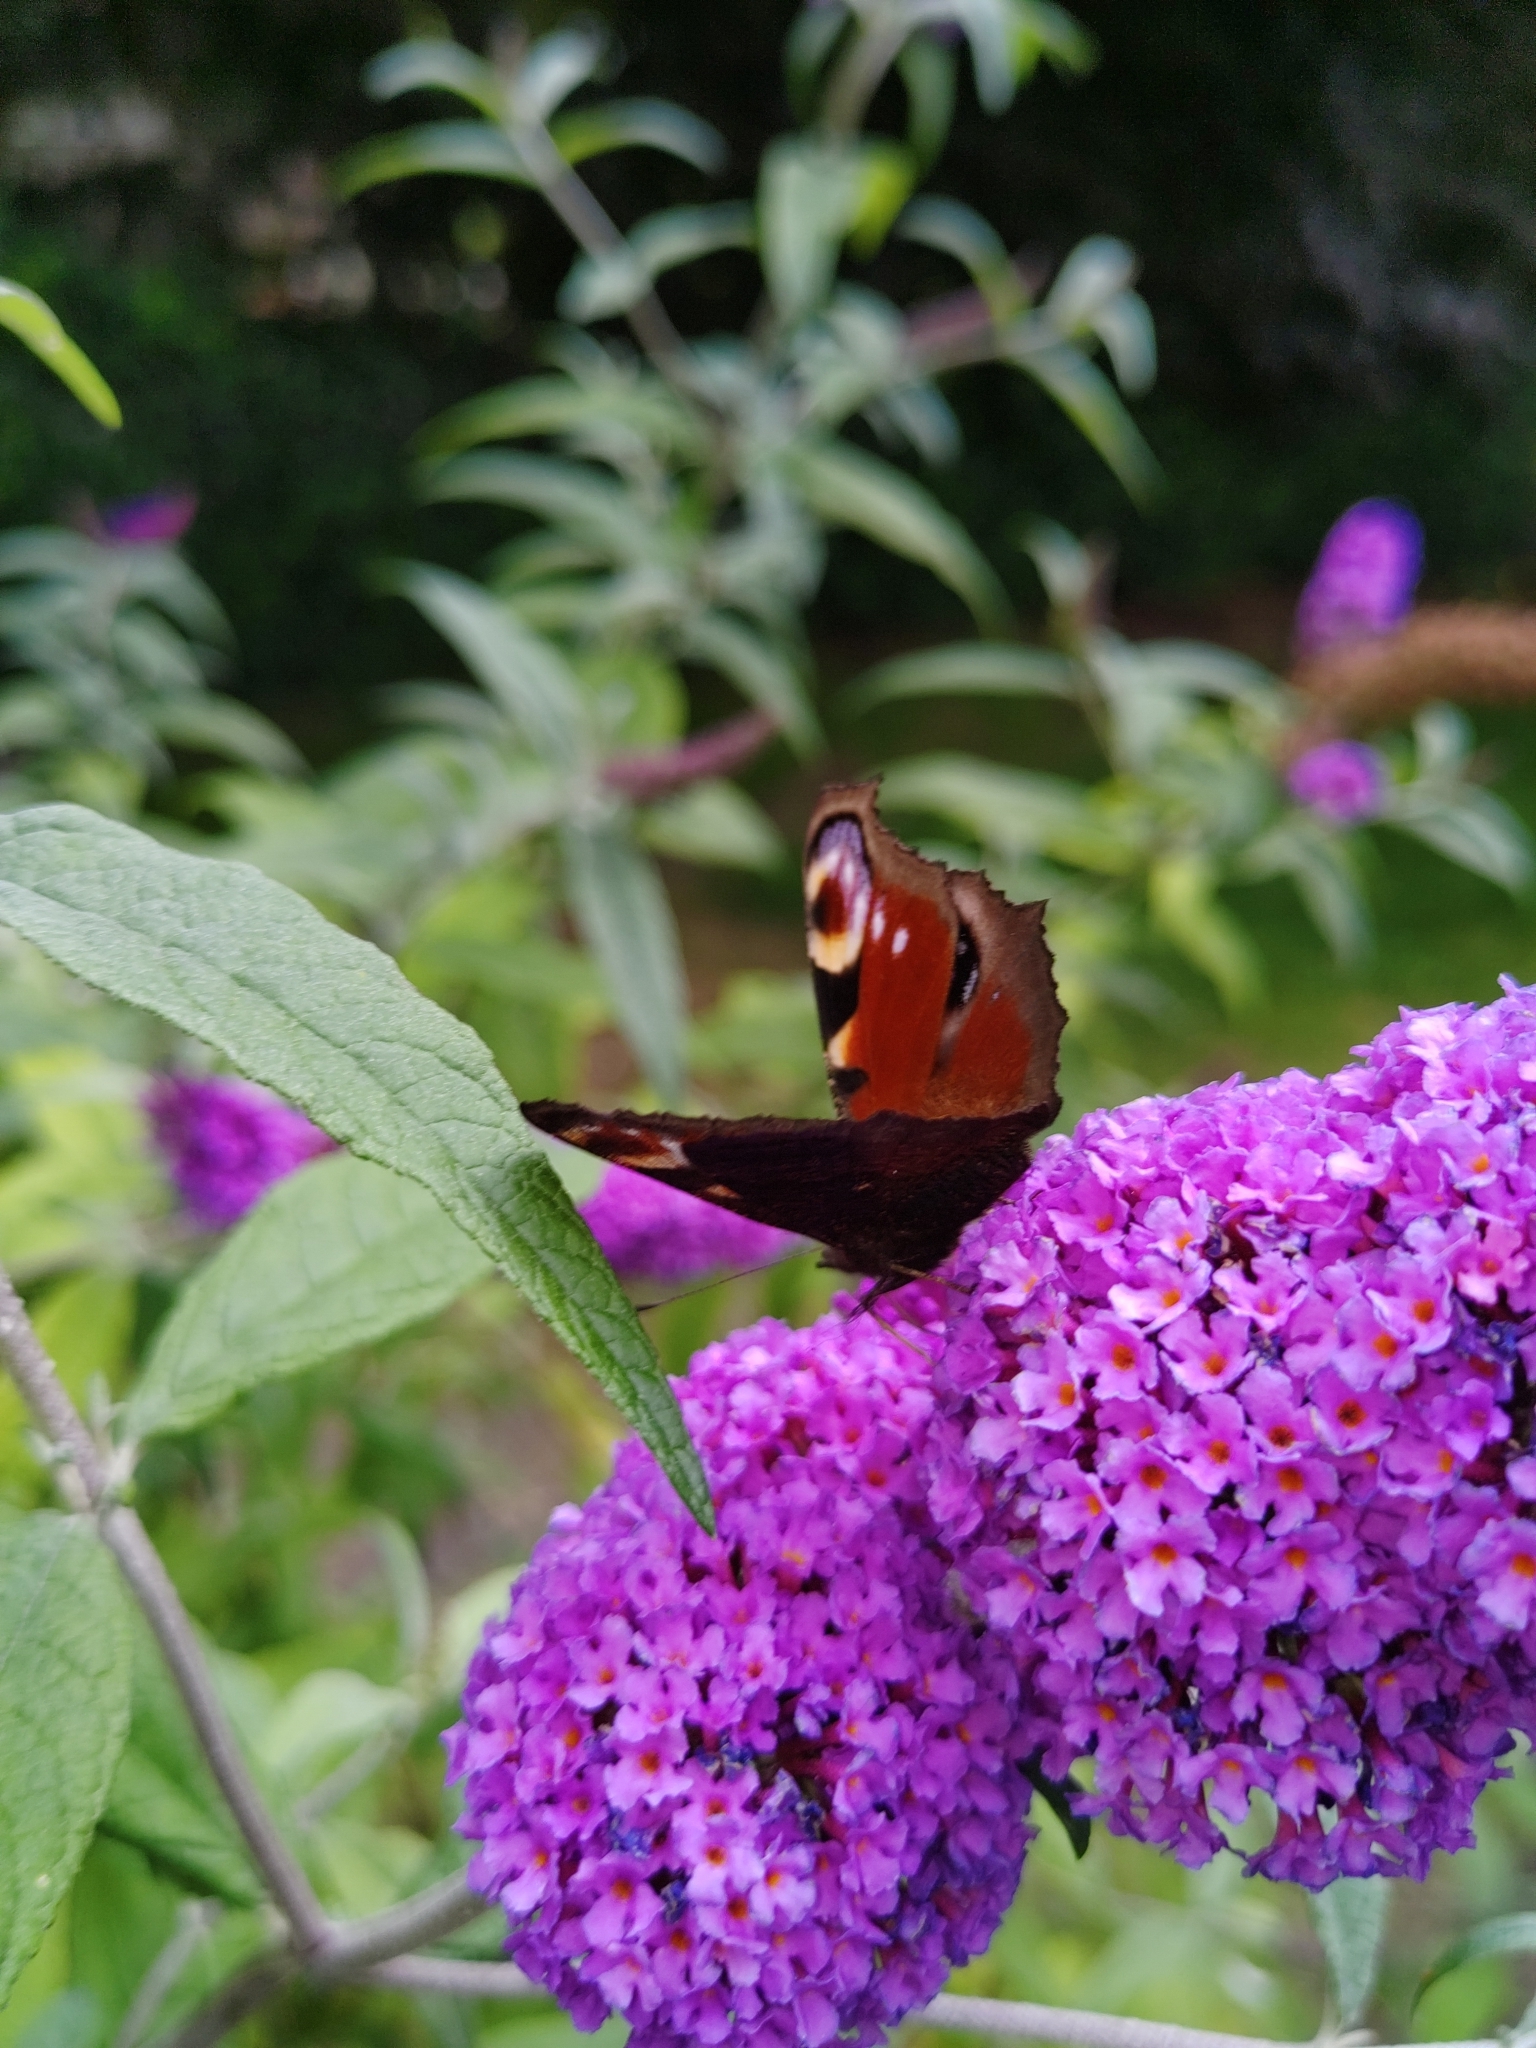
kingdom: Animalia
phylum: Arthropoda
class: Insecta
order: Lepidoptera
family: Nymphalidae
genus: Aglais
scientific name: Aglais io
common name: Peacock
